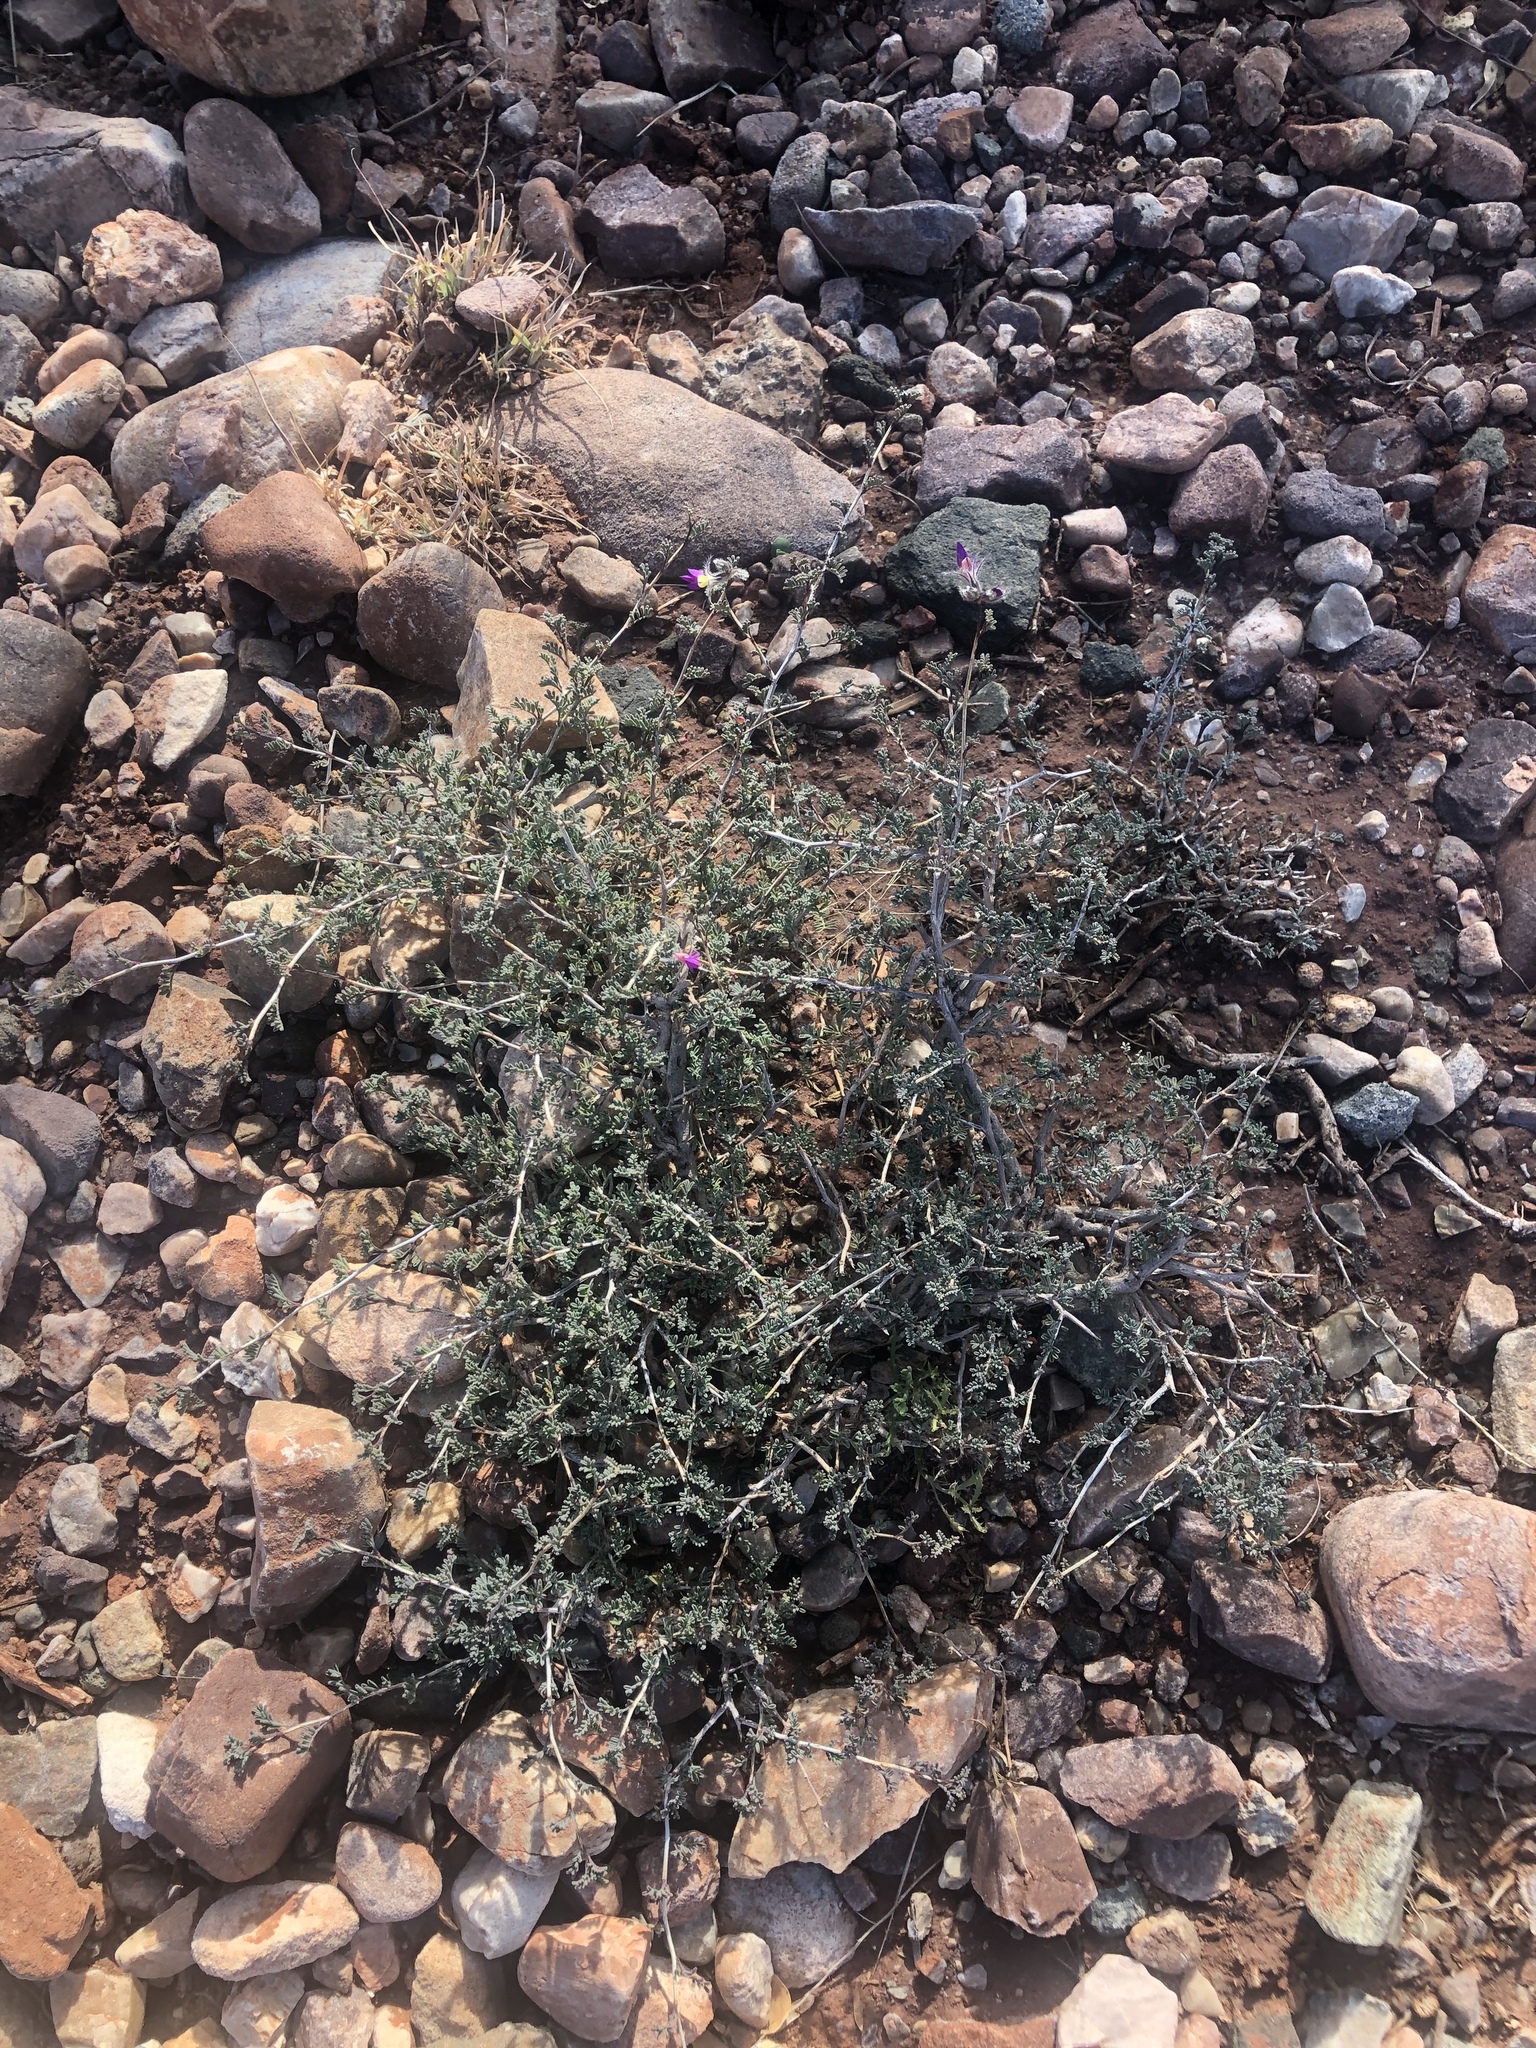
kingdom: Plantae
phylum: Tracheophyta
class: Magnoliopsida
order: Fabales
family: Fabaceae
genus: Dalea
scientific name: Dalea formosa
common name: Feather-plume dalea
